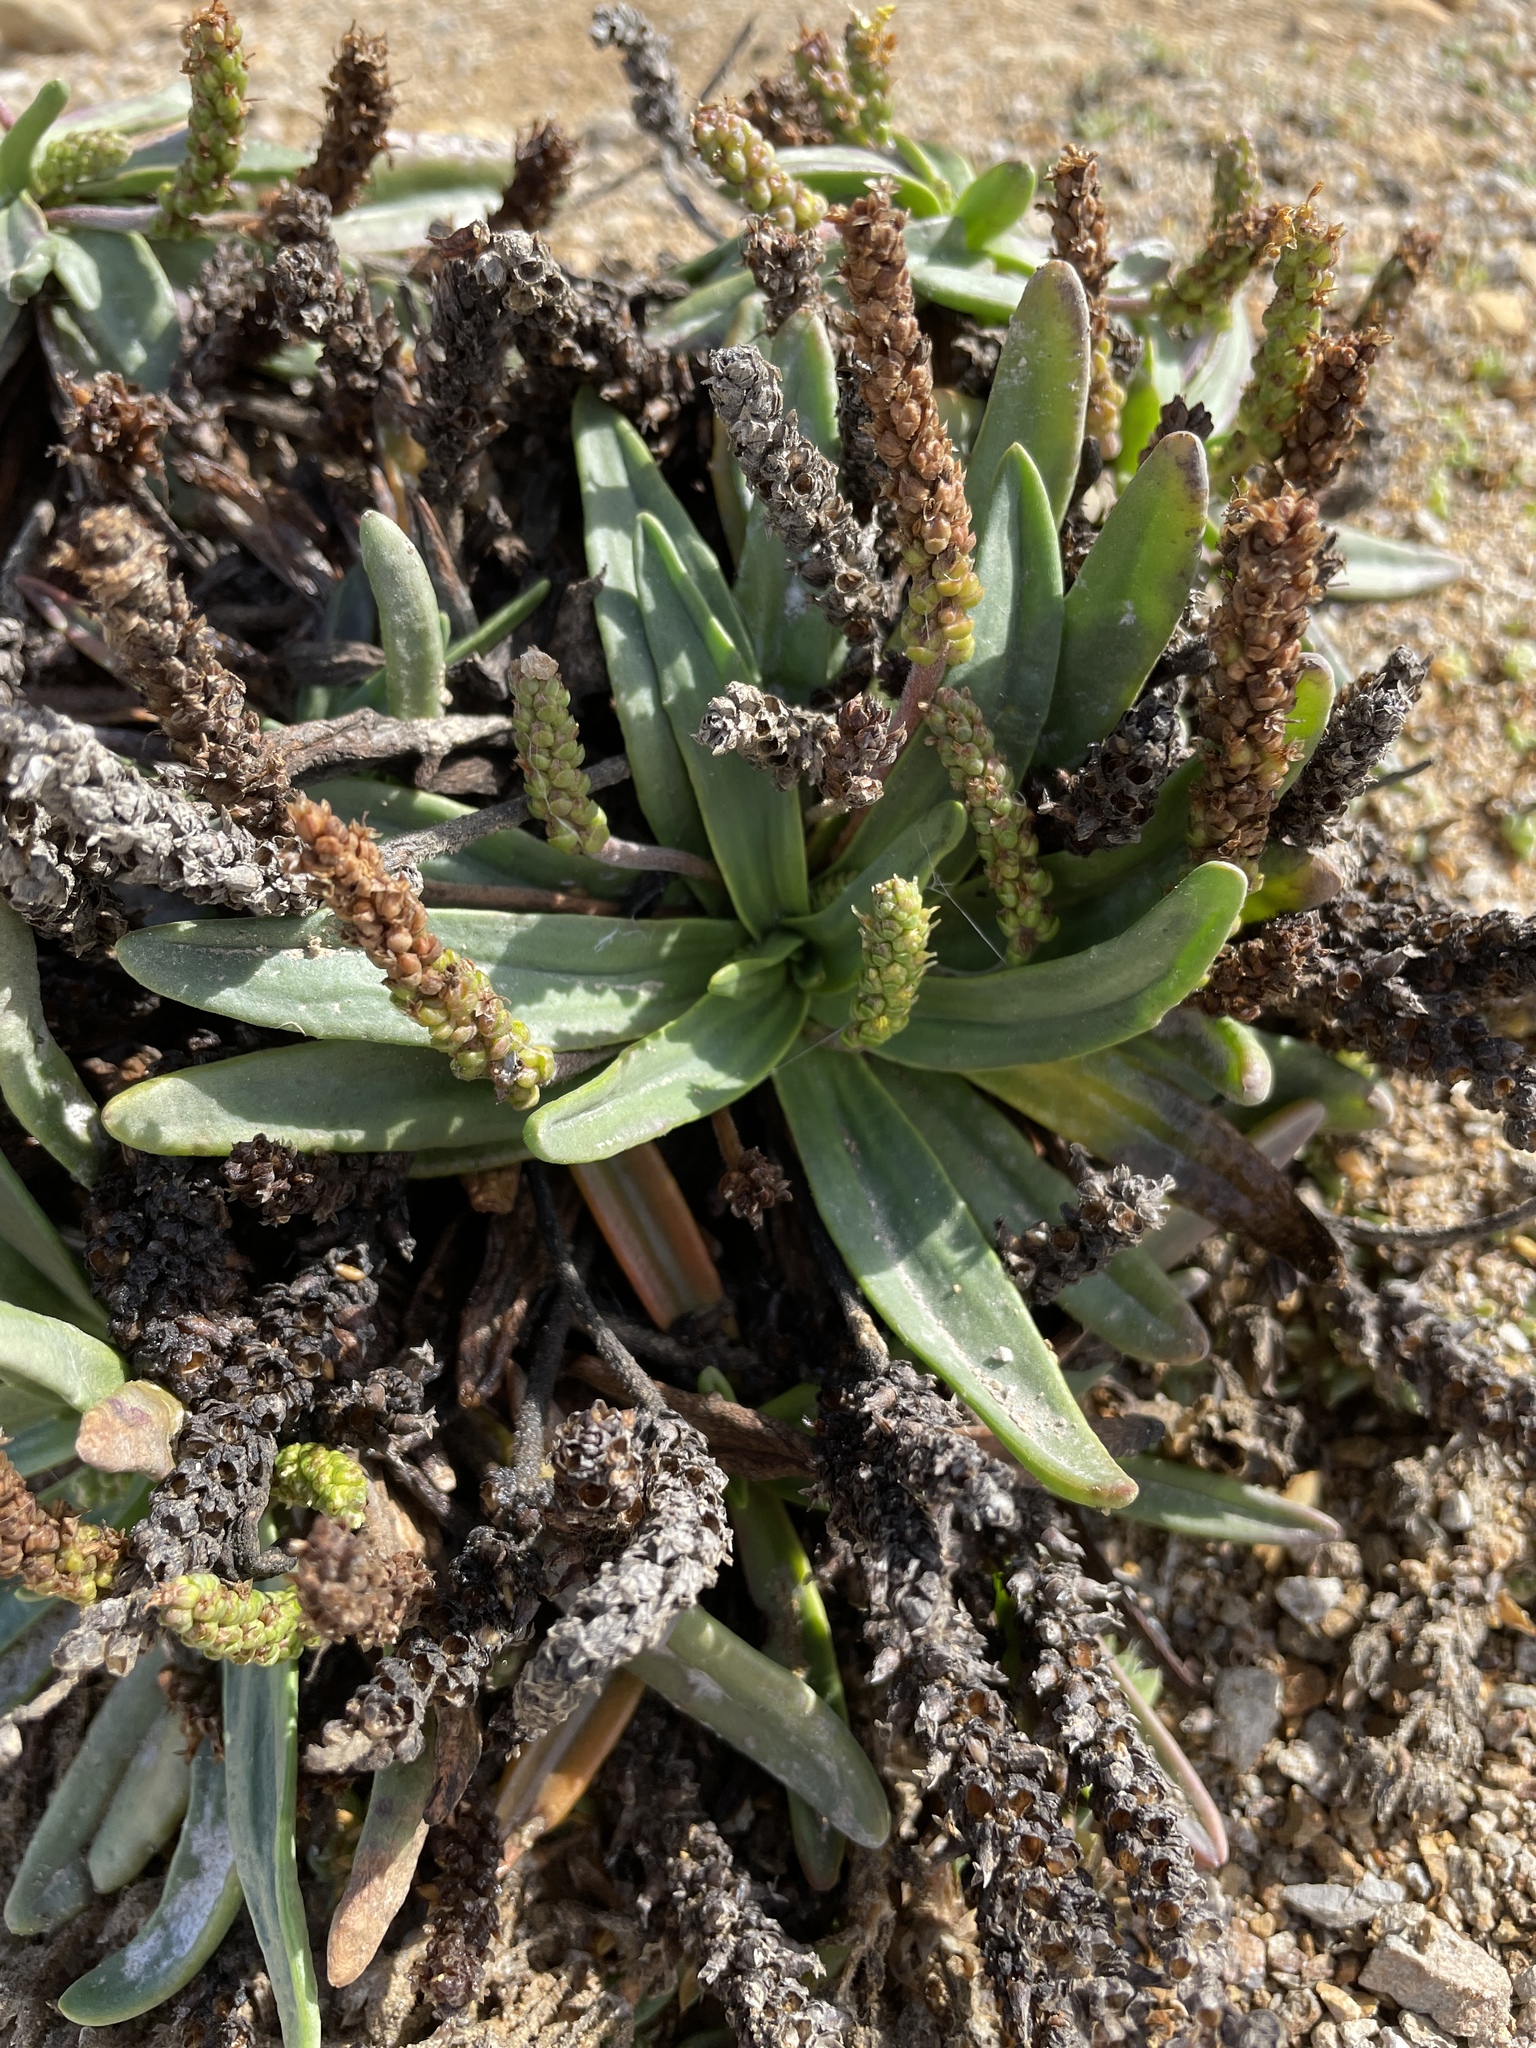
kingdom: Plantae
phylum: Tracheophyta
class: Magnoliopsida
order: Lamiales
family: Plantaginaceae
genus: Plantago
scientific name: Plantago maritima
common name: Sea plantain
